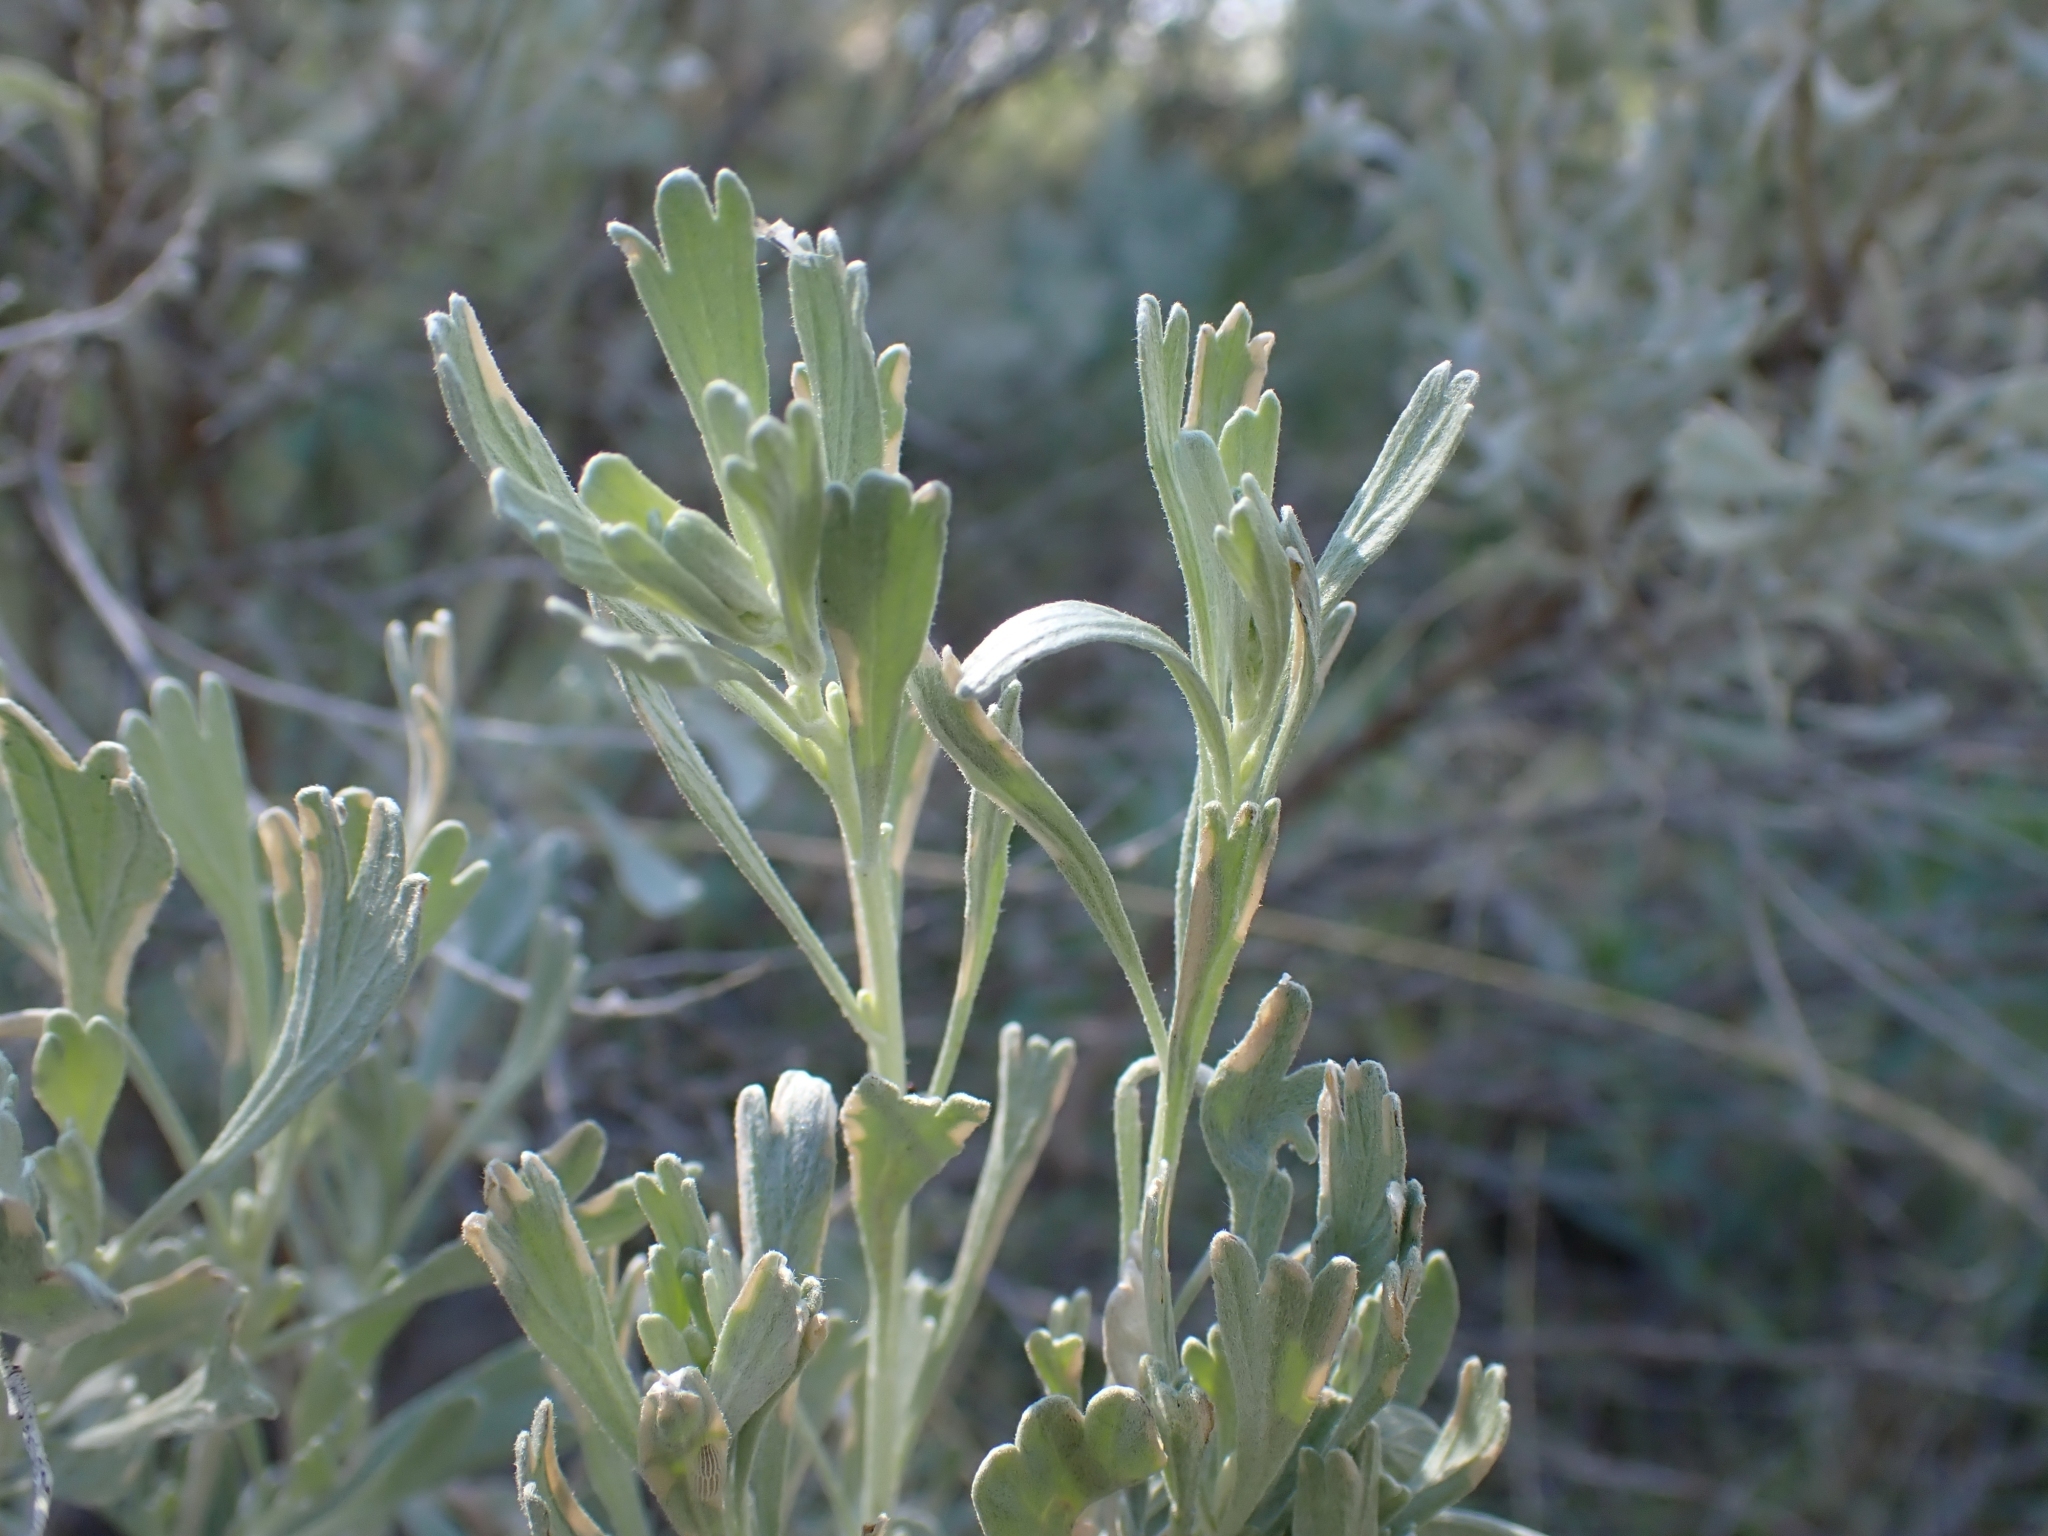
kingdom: Plantae
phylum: Tracheophyta
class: Magnoliopsida
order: Asterales
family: Asteraceae
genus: Artemisia
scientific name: Artemisia tridentata
